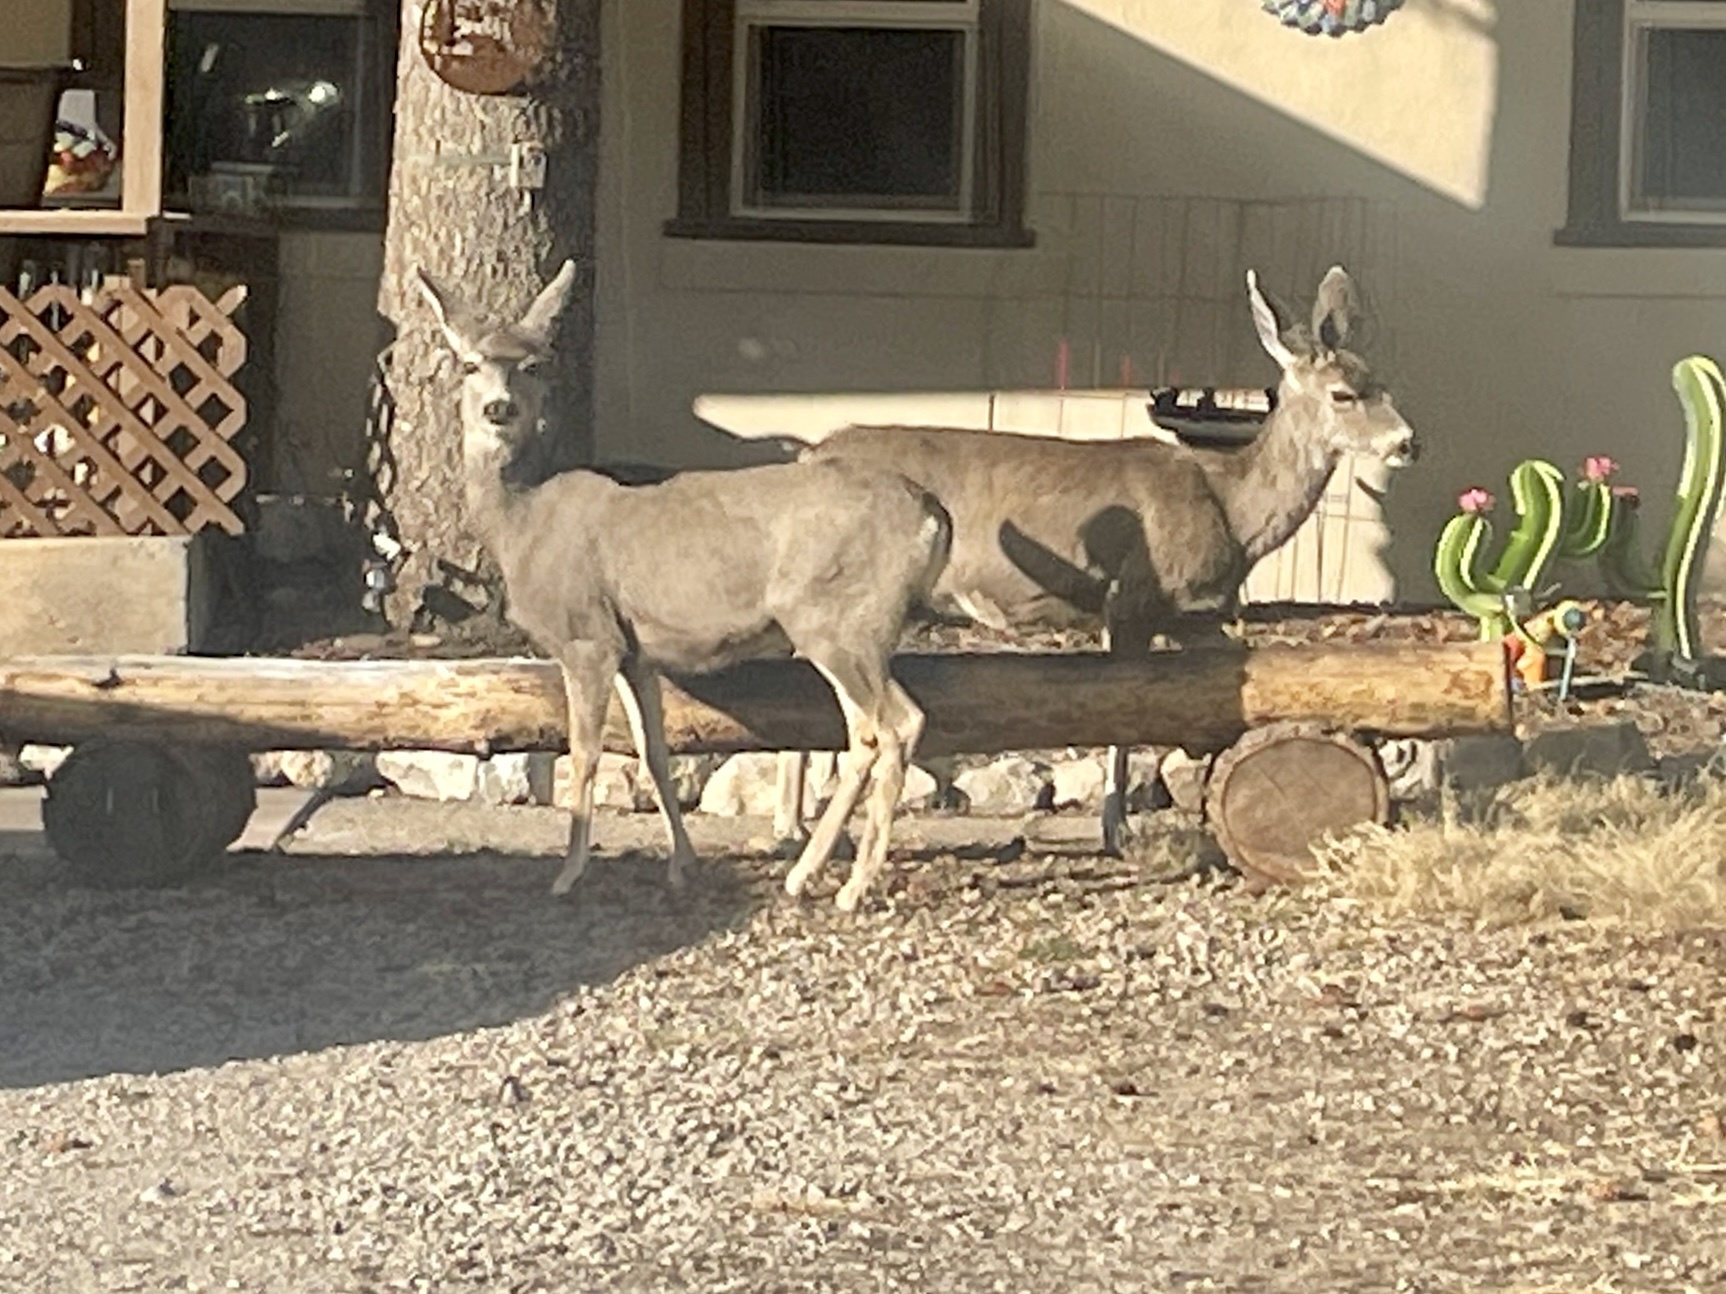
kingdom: Animalia
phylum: Chordata
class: Mammalia
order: Artiodactyla
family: Cervidae
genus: Odocoileus
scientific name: Odocoileus hemionus
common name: Mule deer
